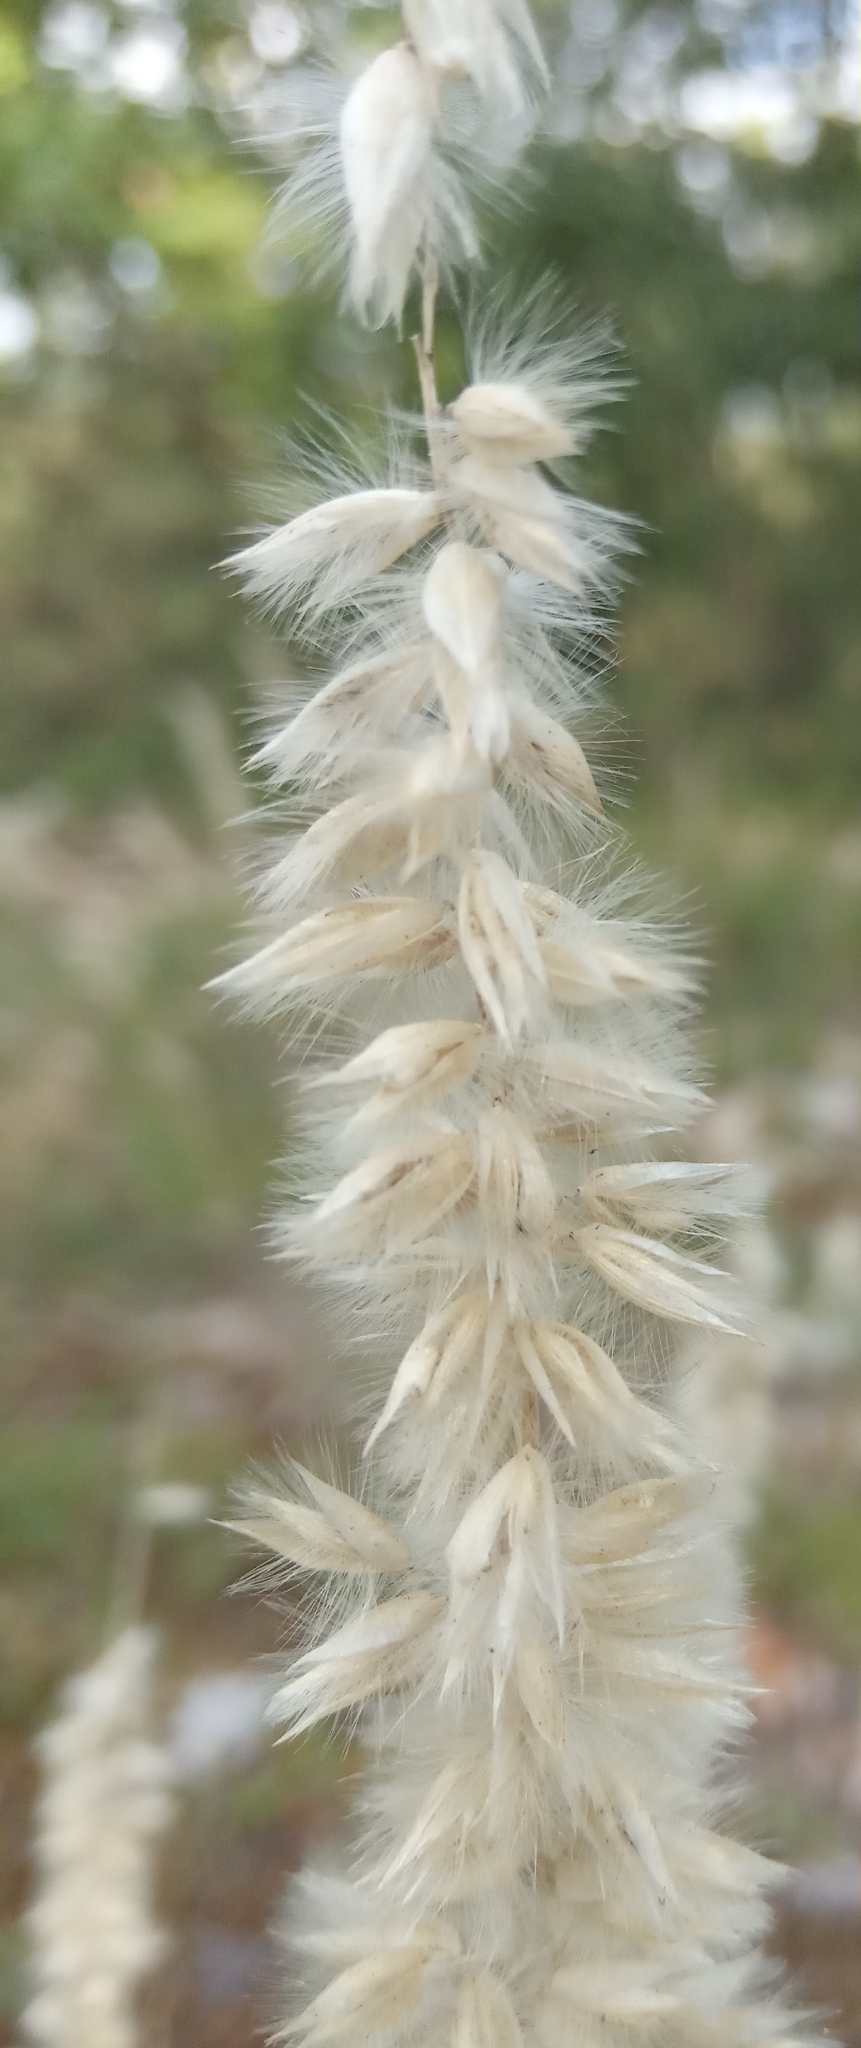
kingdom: Plantae
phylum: Tracheophyta
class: Liliopsida
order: Poales
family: Poaceae
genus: Melica
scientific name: Melica ciliata
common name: Hairy melicgrass
